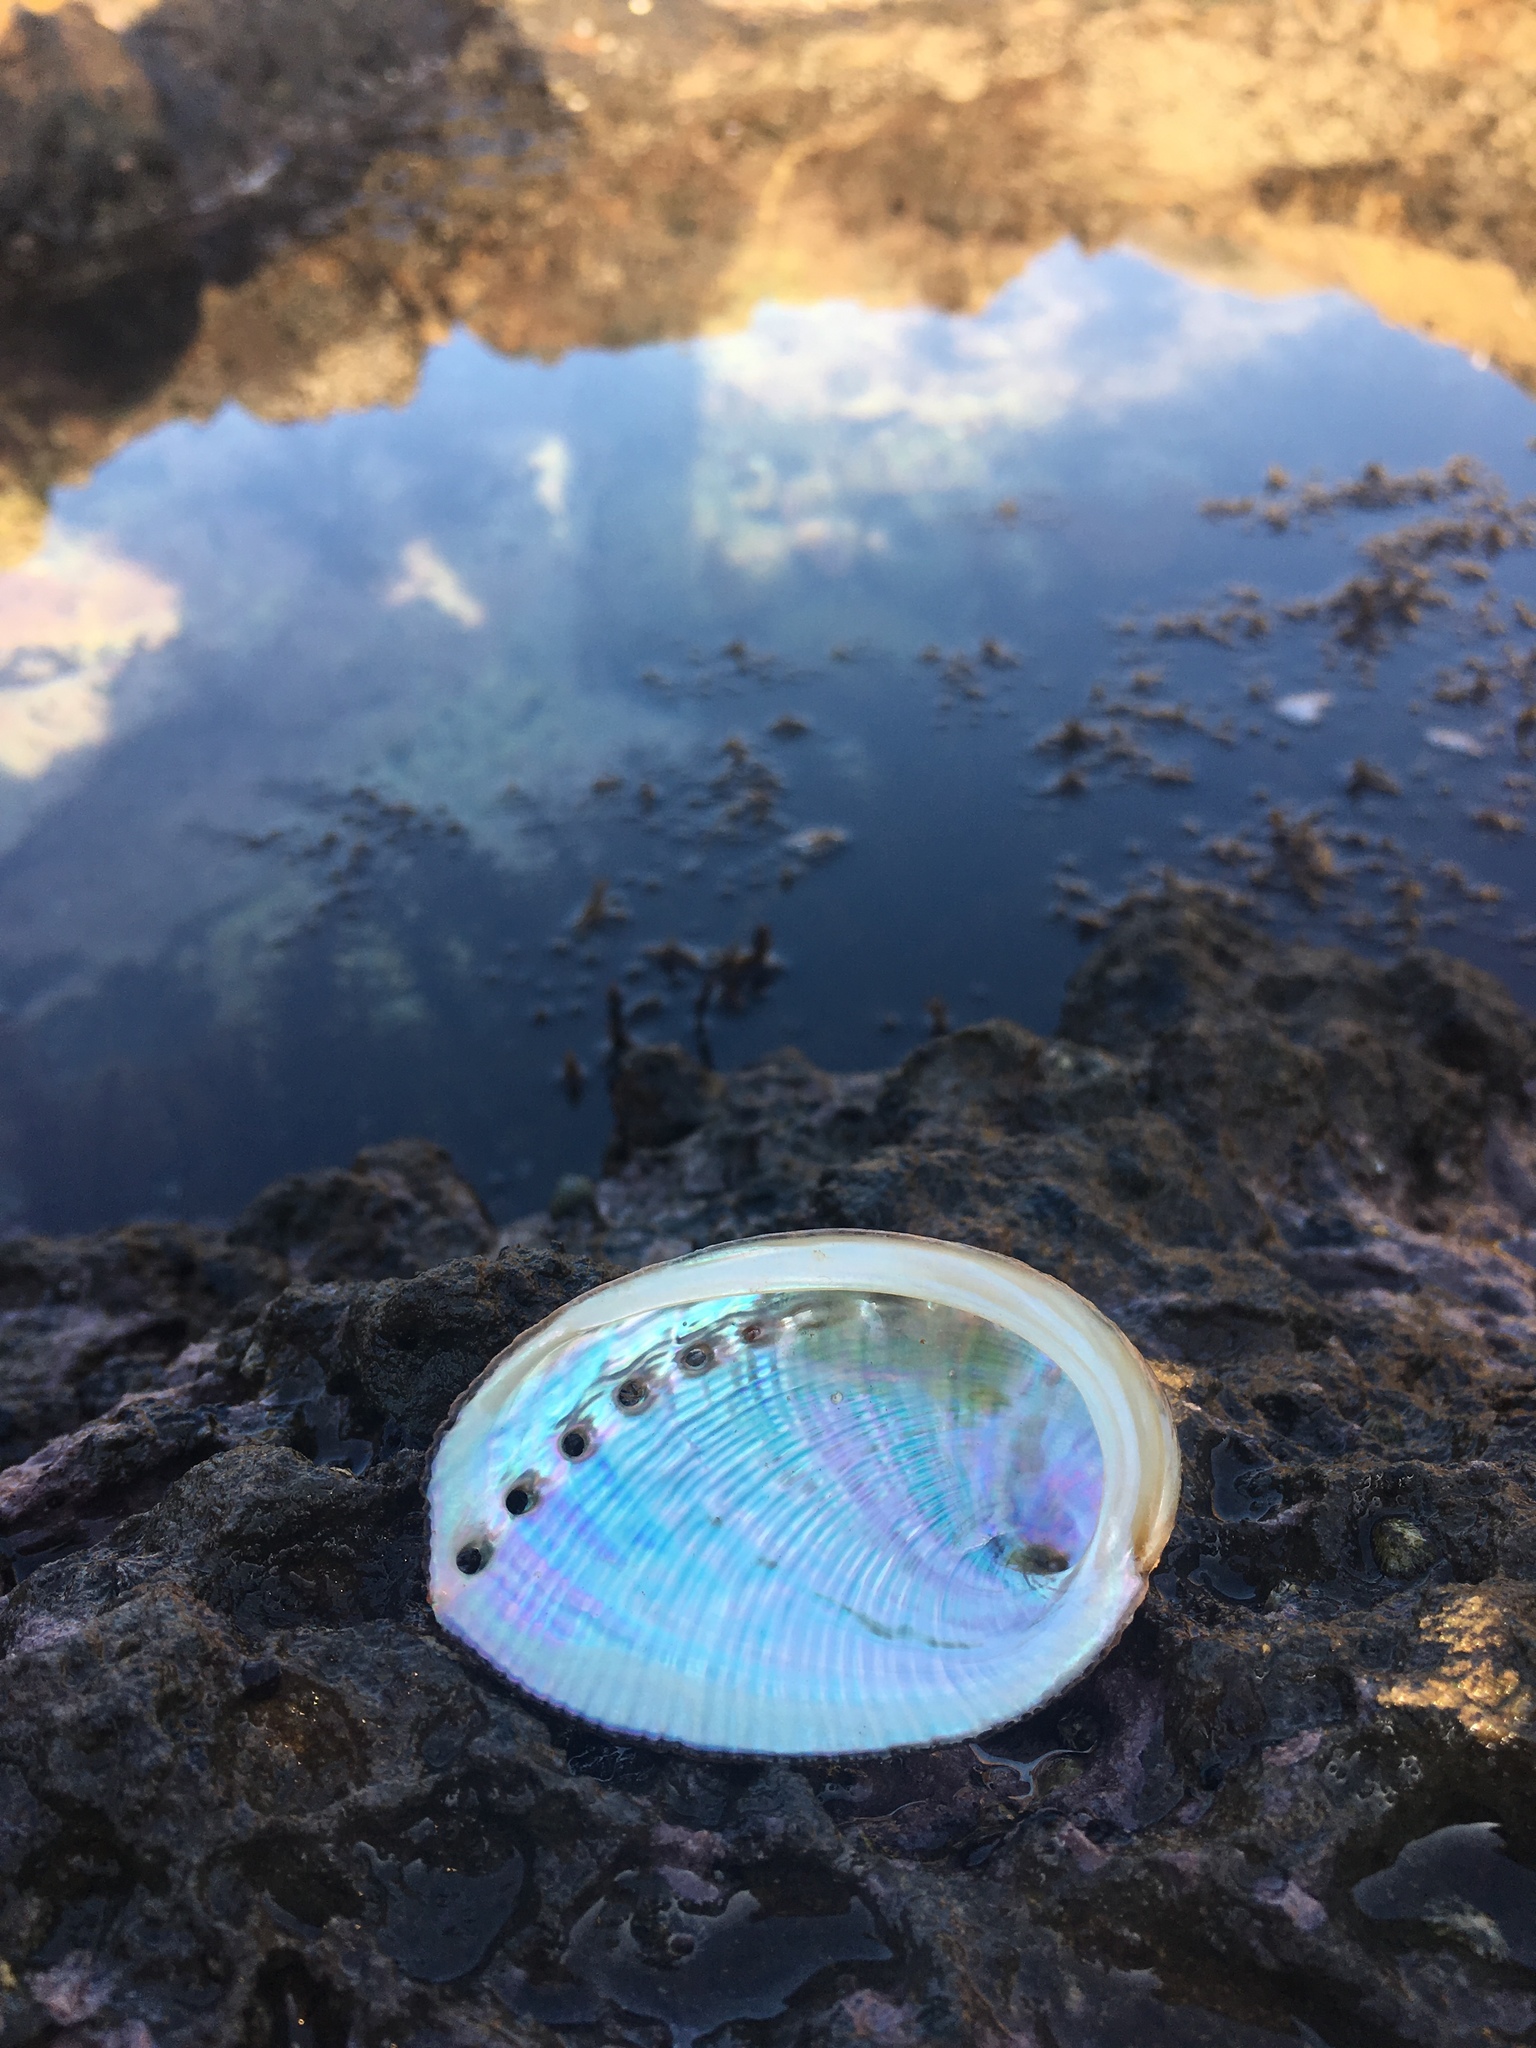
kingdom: Animalia
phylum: Mollusca
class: Gastropoda
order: Lepetellida
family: Haliotidae
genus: Haliotis
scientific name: Haliotis fulgens
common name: Green abalone
